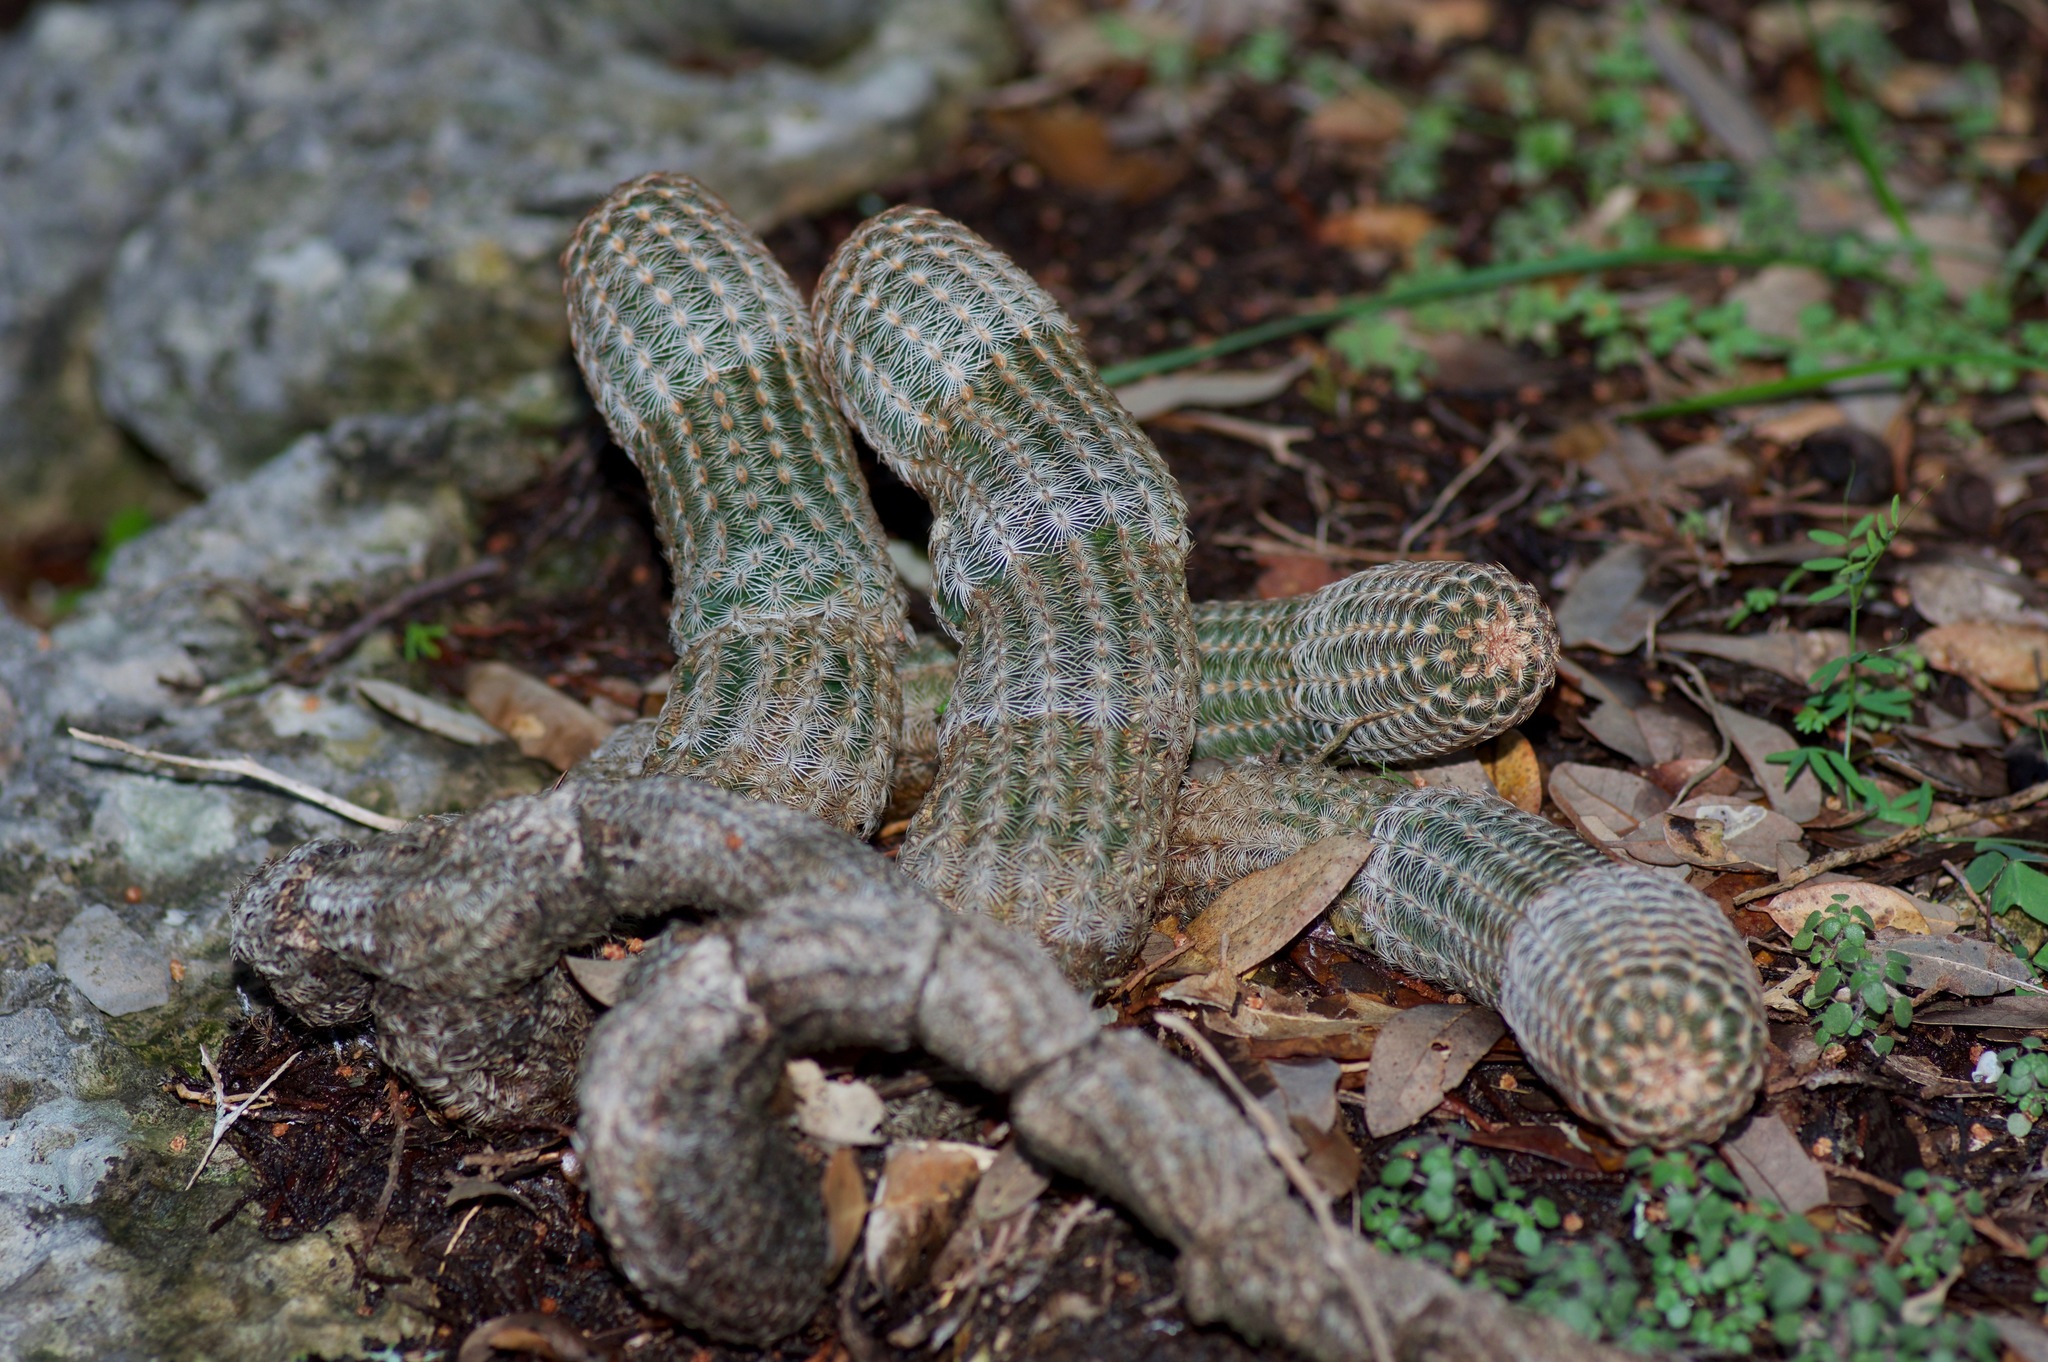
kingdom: Plantae
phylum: Tracheophyta
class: Magnoliopsida
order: Caryophyllales
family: Cactaceae
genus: Echinocereus
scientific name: Echinocereus reichenbachii
